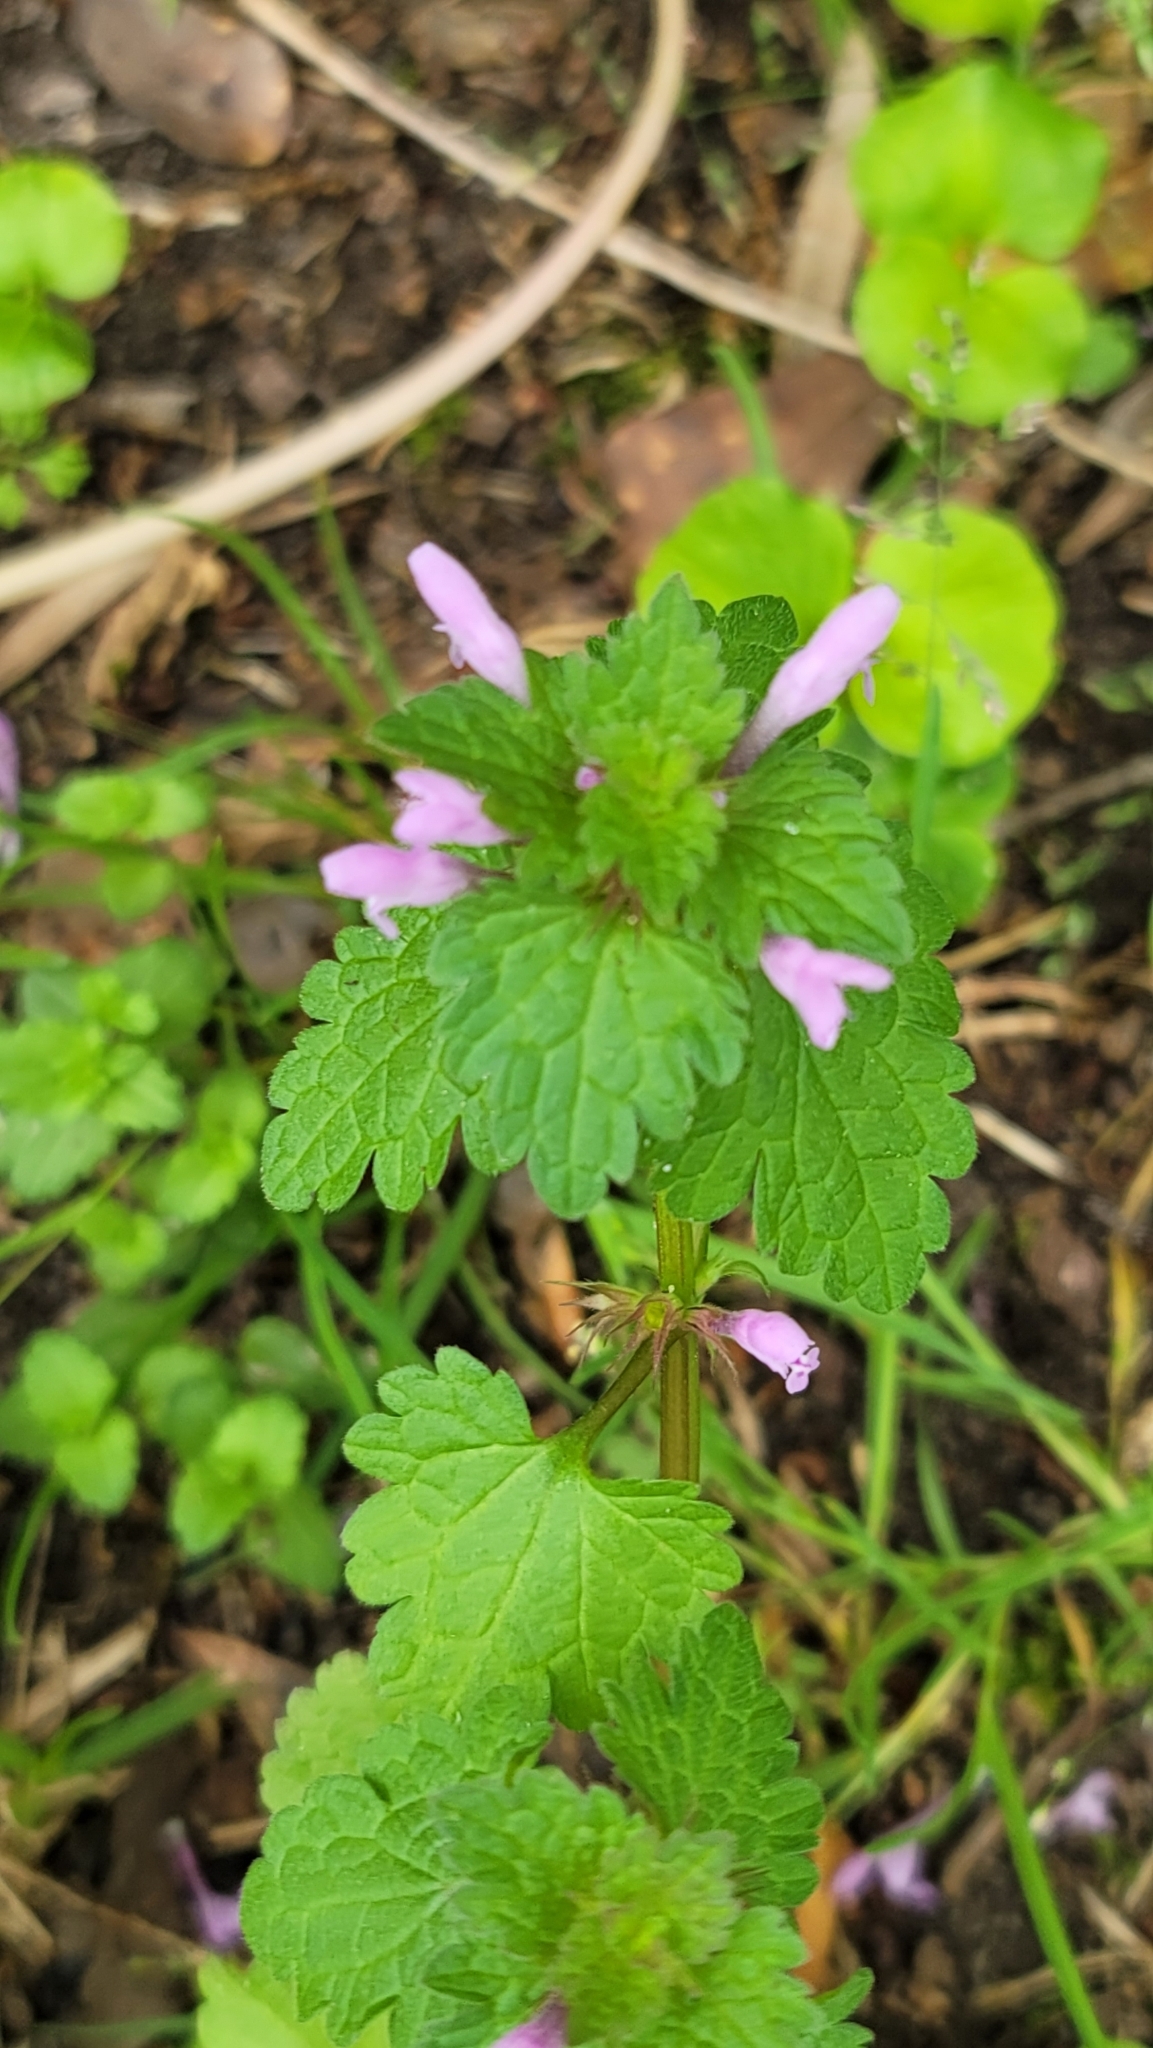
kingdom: Plantae
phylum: Tracheophyta
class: Magnoliopsida
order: Lamiales
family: Lamiaceae
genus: Lamium
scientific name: Lamium hybridum
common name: Cut-leaved dead-nettle
